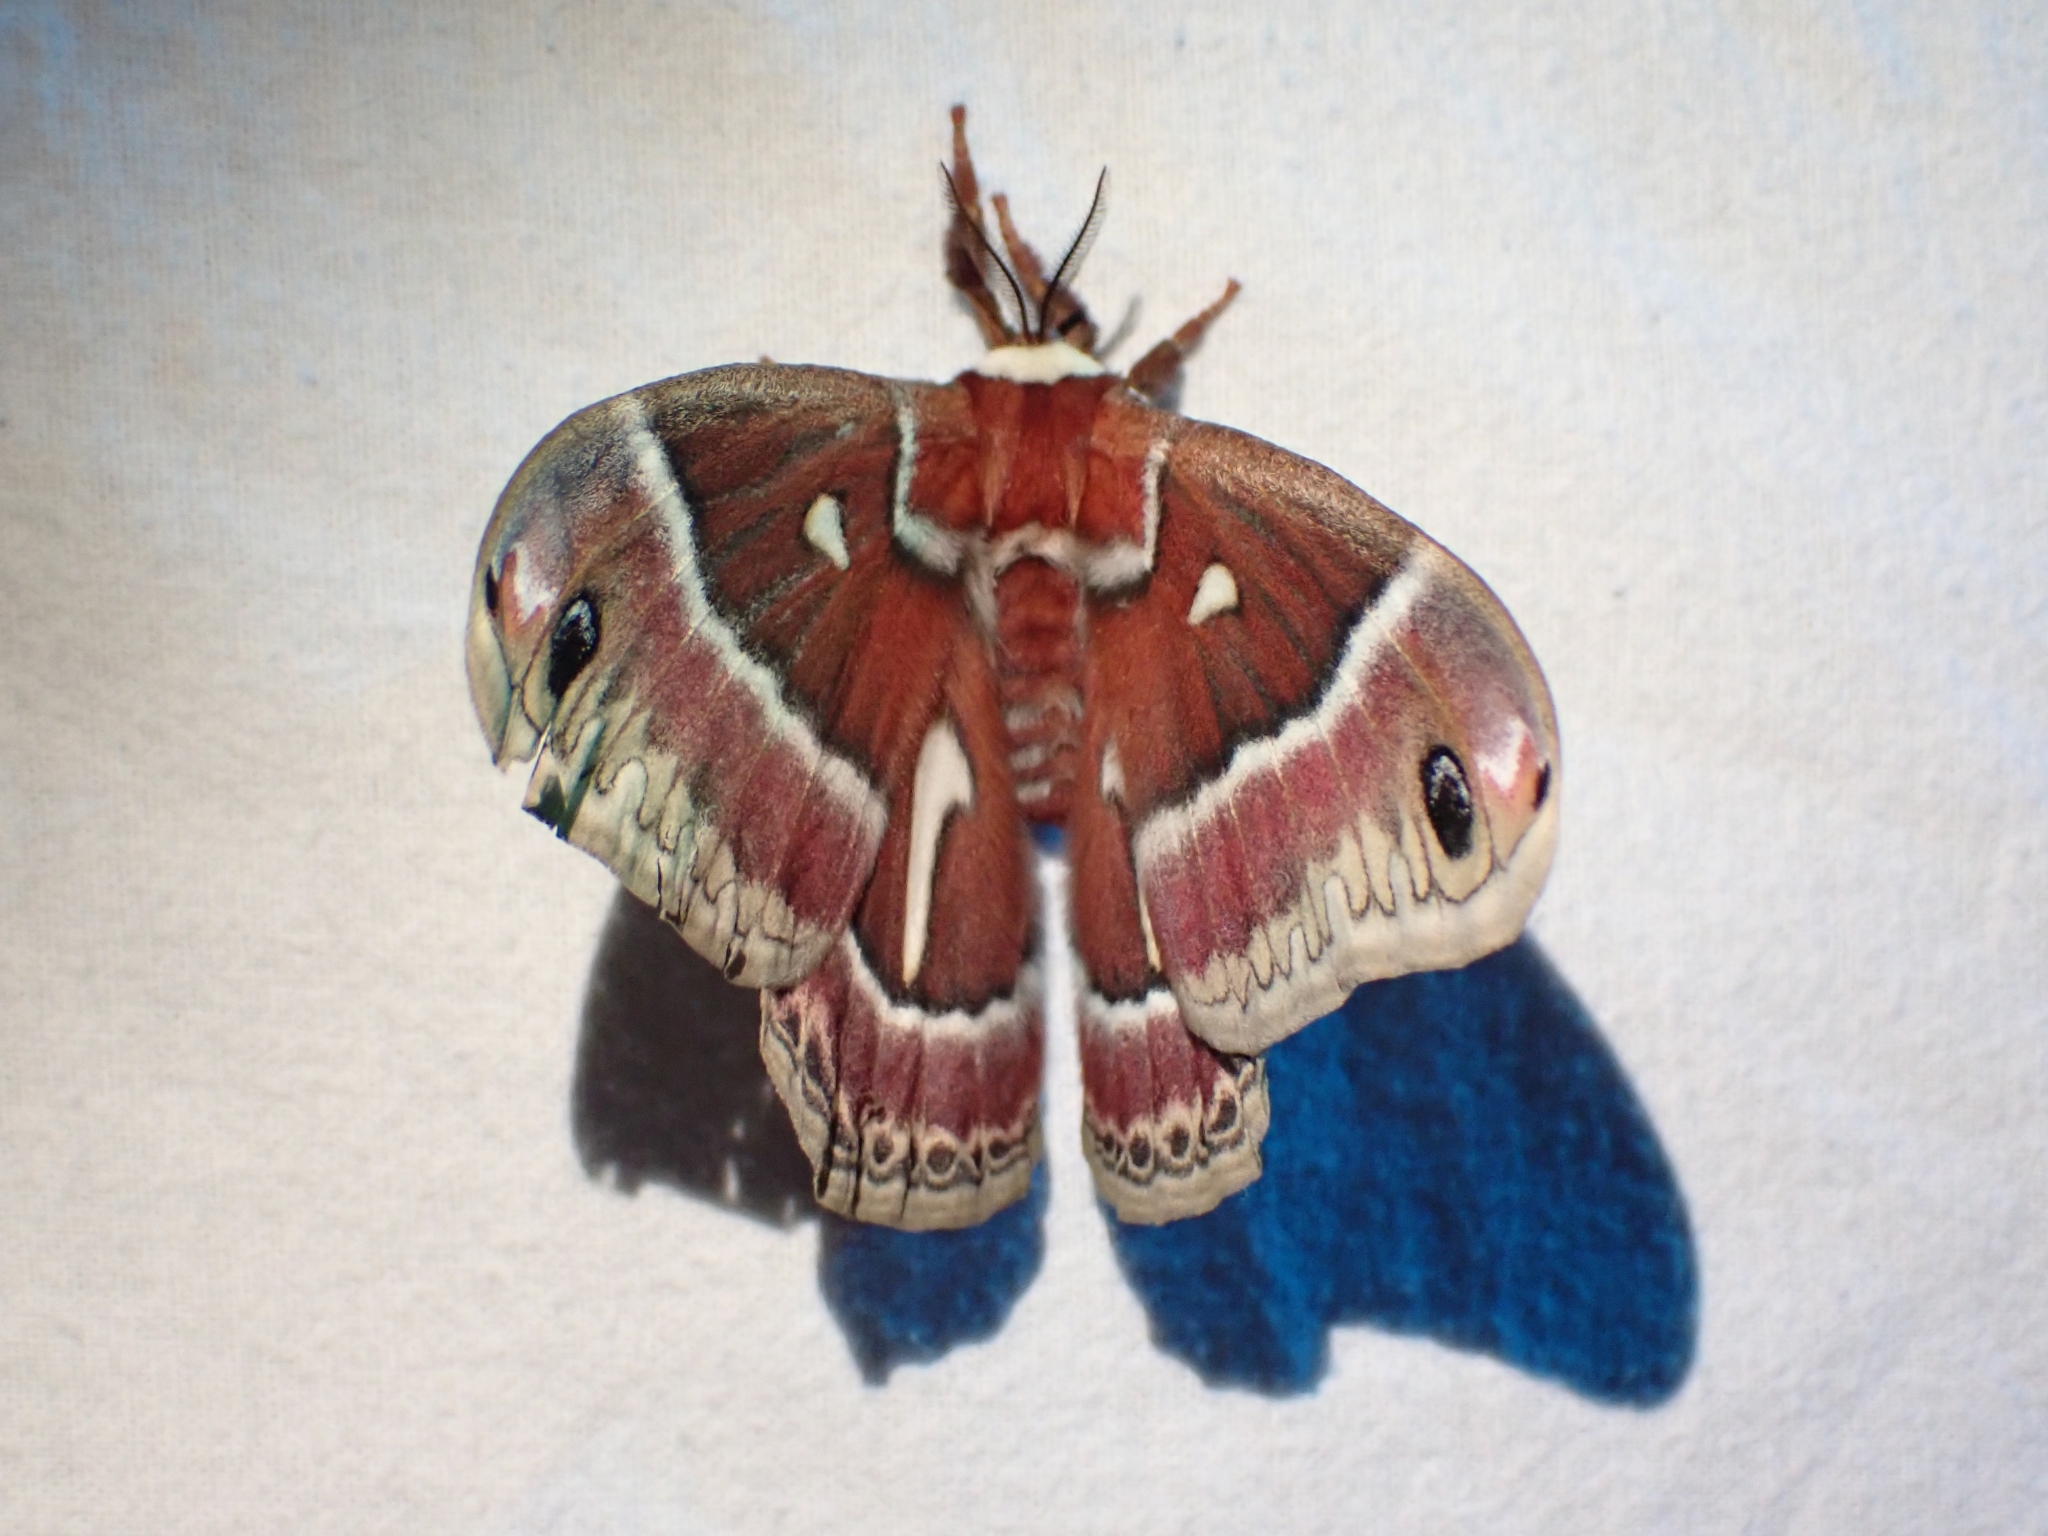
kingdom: Animalia
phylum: Arthropoda
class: Insecta
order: Lepidoptera
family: Saturniidae
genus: Hyalophora
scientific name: Hyalophora euryalus
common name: Ceanothus silkmoth
